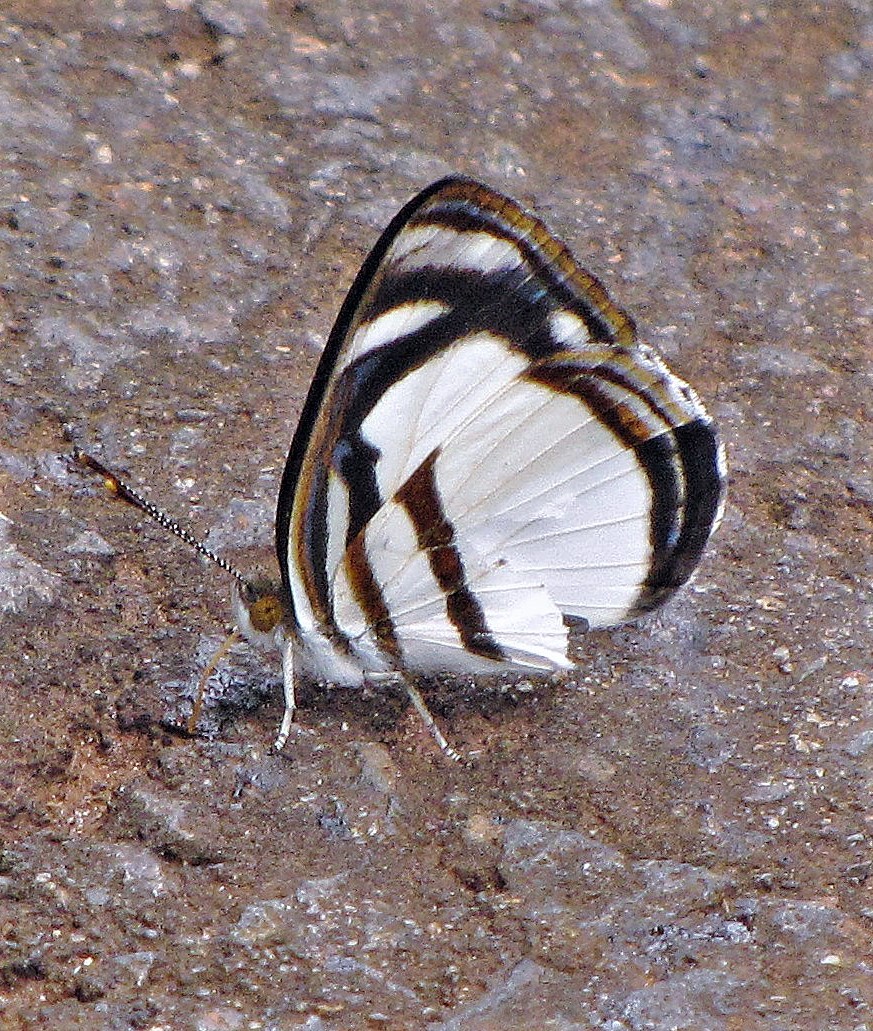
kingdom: Animalia
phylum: Arthropoda
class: Insecta
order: Lepidoptera
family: Nymphalidae
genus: Dynamine
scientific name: Dynamine athemon
